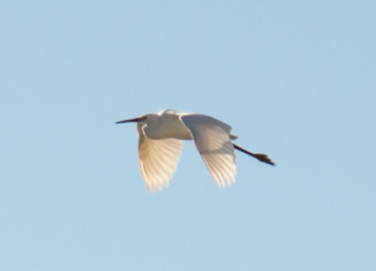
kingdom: Animalia
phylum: Chordata
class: Aves
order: Pelecaniformes
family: Ardeidae
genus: Egretta
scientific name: Egretta garzetta
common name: Little egret
